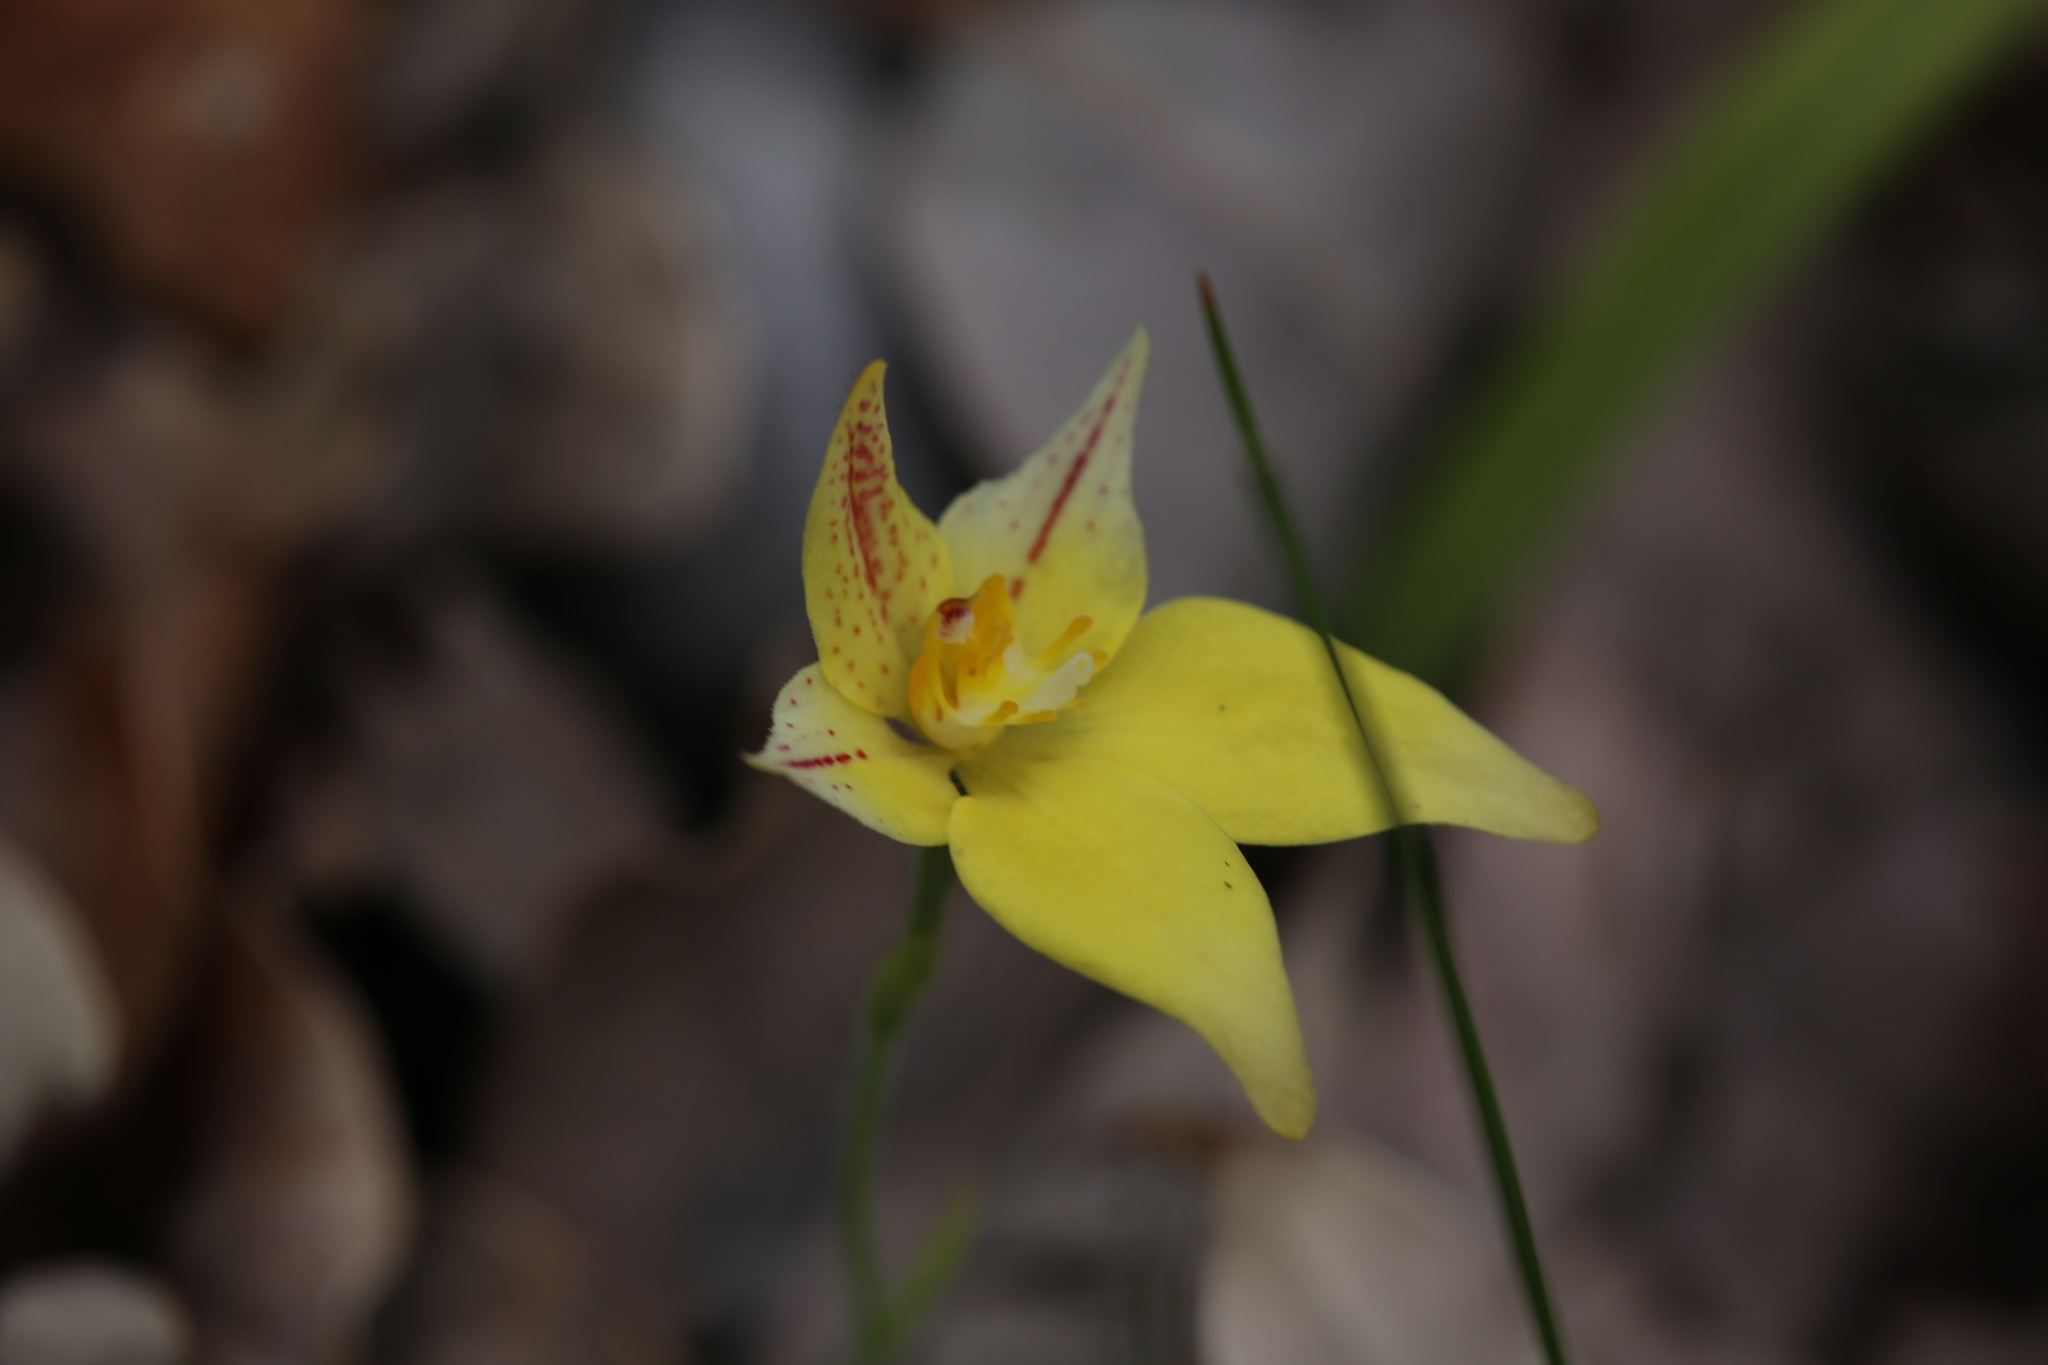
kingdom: Plantae
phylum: Tracheophyta
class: Liliopsida
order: Asparagales
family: Orchidaceae
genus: Caladenia
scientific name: Caladenia flava
